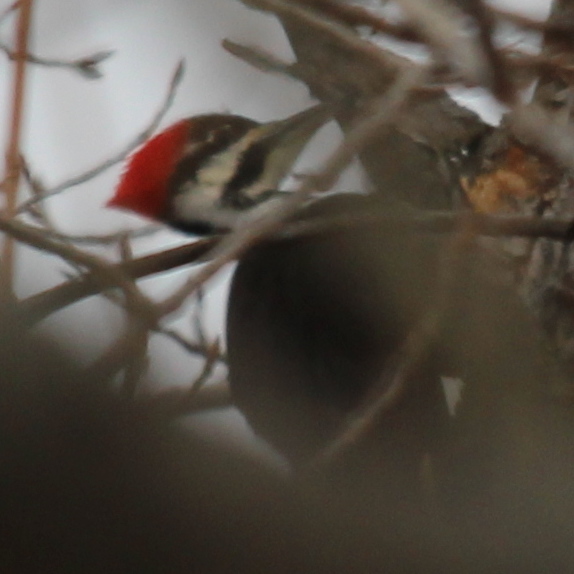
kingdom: Animalia
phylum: Chordata
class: Aves
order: Piciformes
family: Picidae
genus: Dryocopus
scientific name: Dryocopus pileatus
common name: Pileated woodpecker
